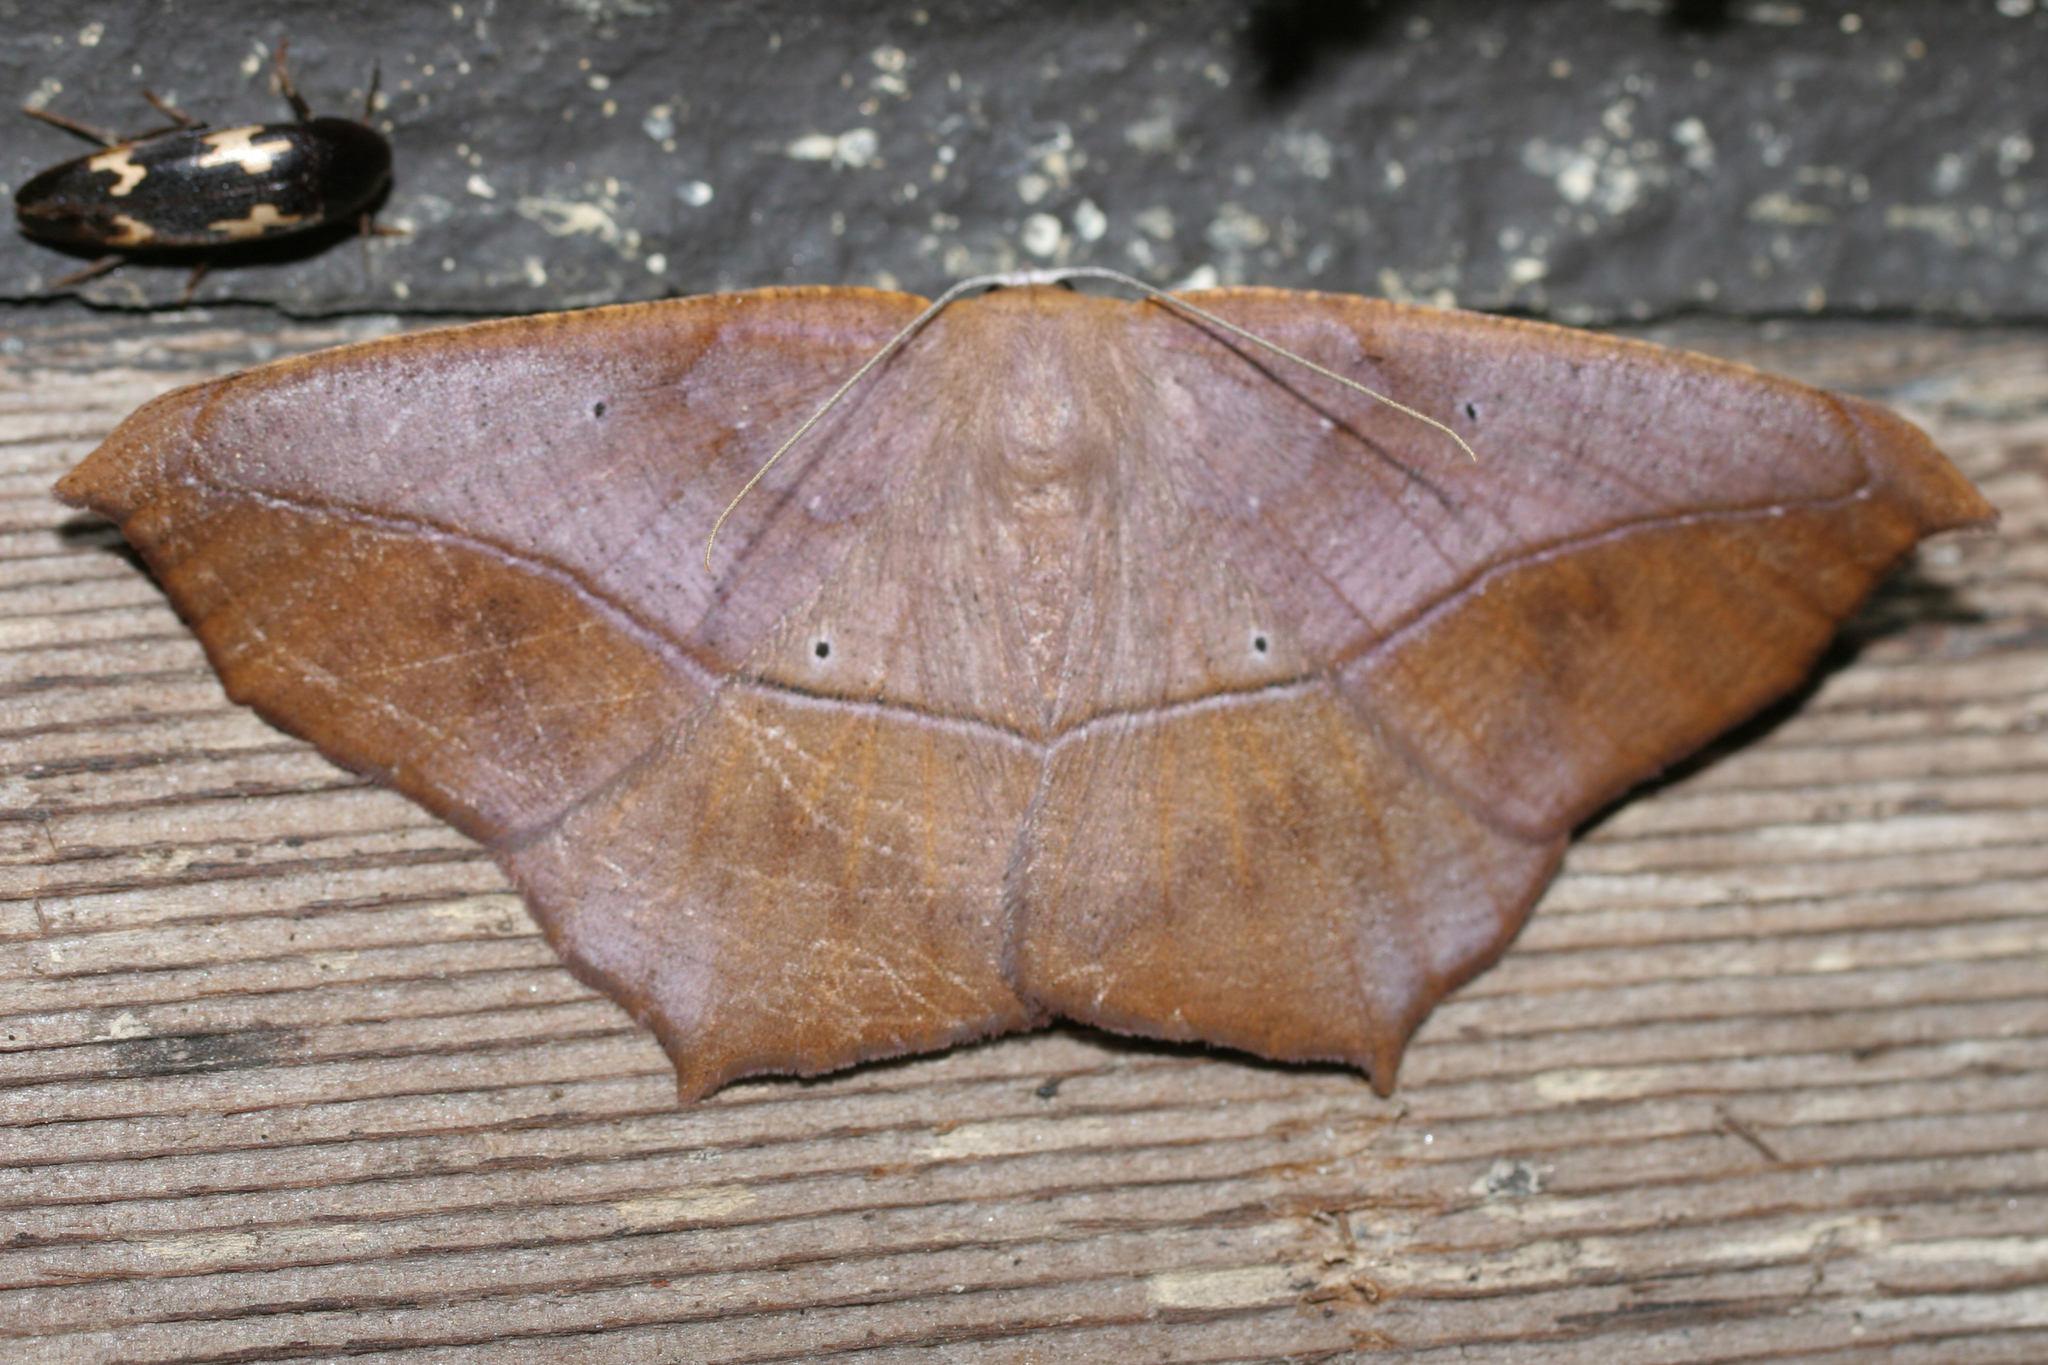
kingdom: Animalia
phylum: Arthropoda
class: Insecta
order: Lepidoptera
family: Geometridae
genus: Prochoerodes
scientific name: Prochoerodes lineola
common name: Large maple spanworm
